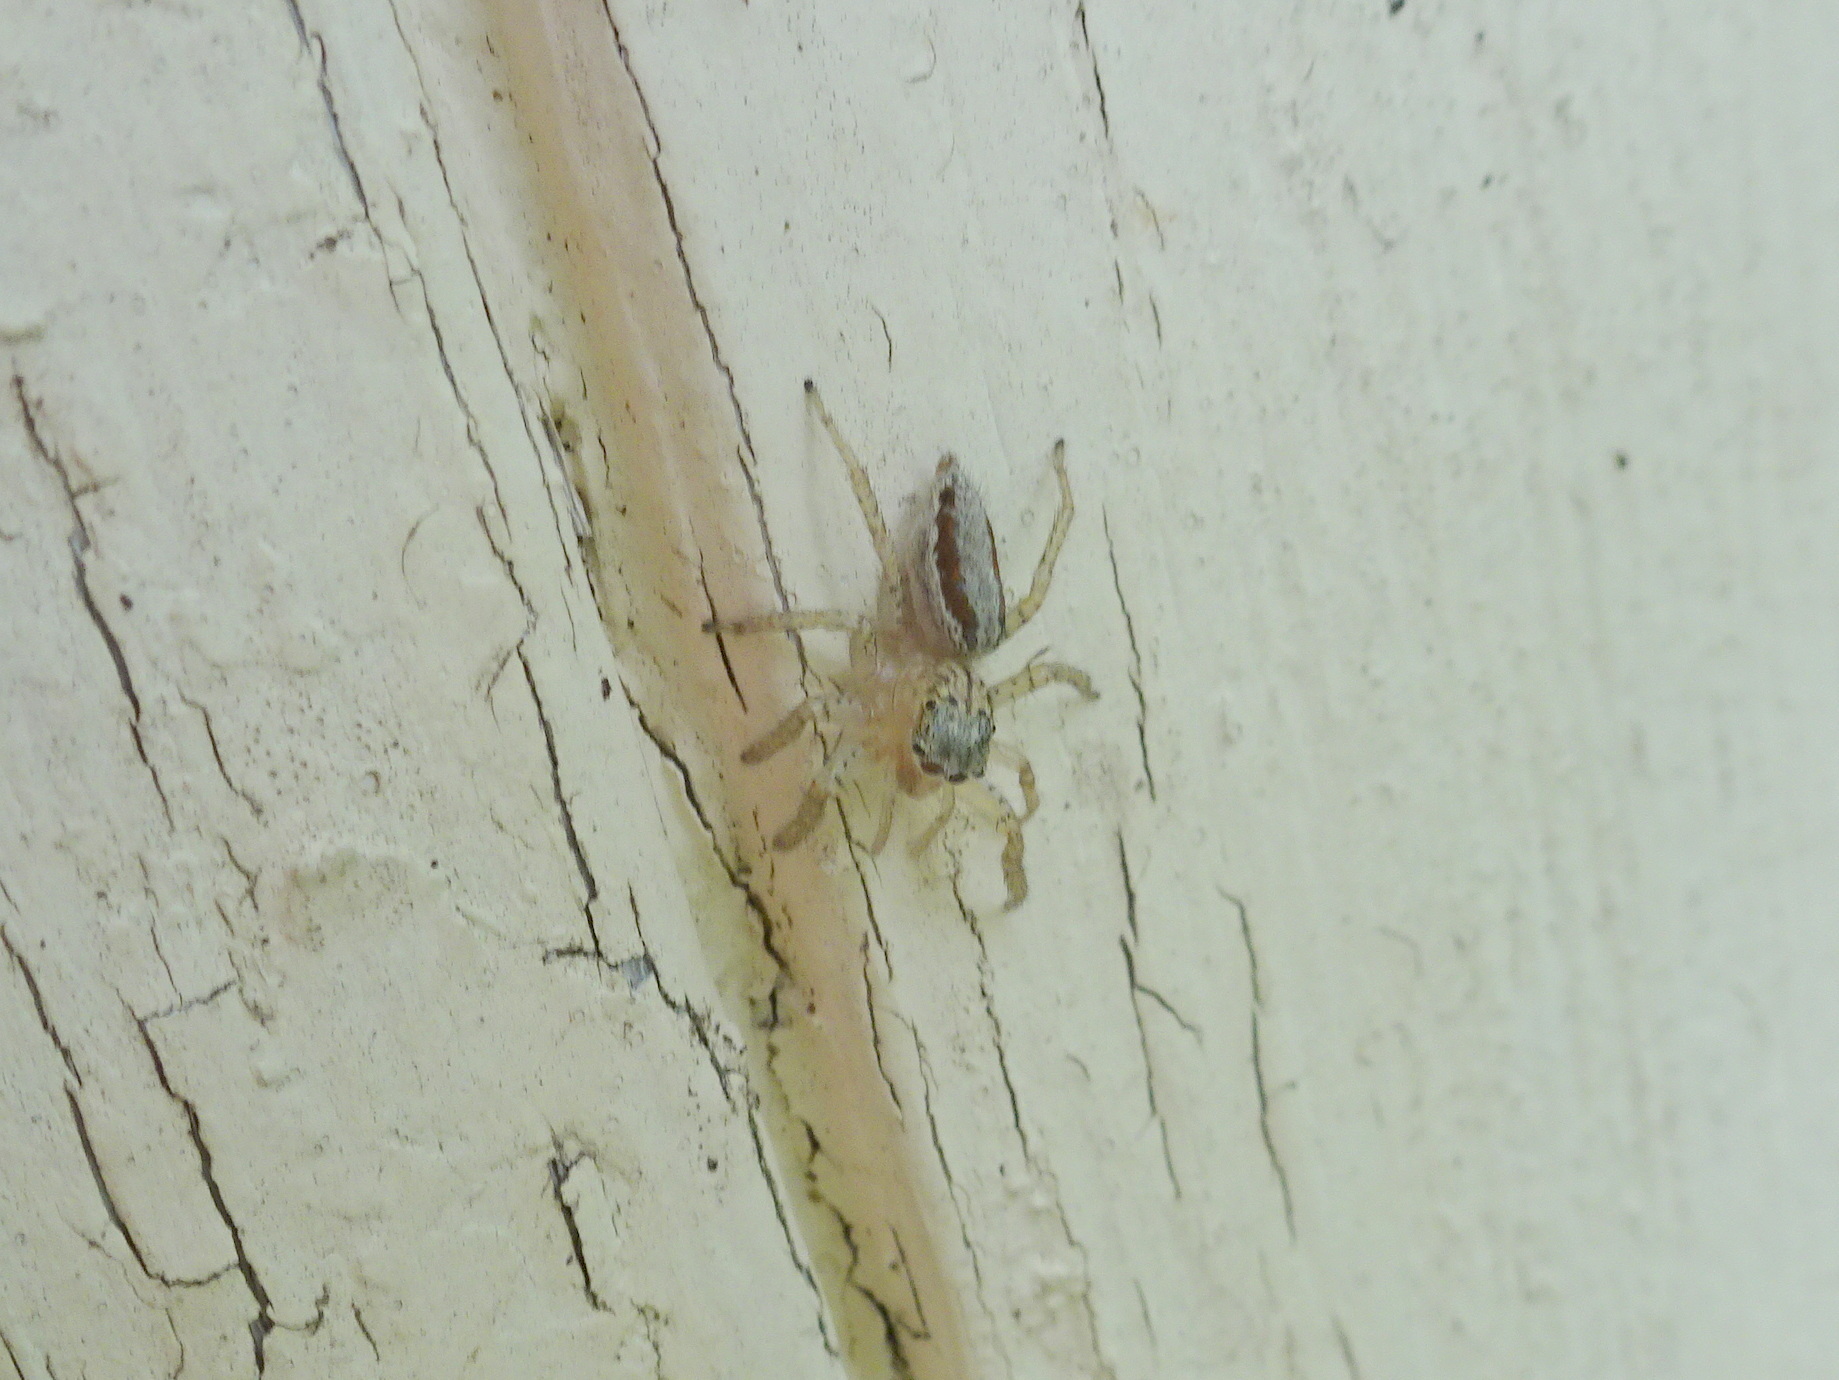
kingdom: Animalia
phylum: Arthropoda
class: Arachnida
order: Araneae
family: Salticidae
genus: Maevia
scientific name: Maevia inclemens
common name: Dimorphic jumper
